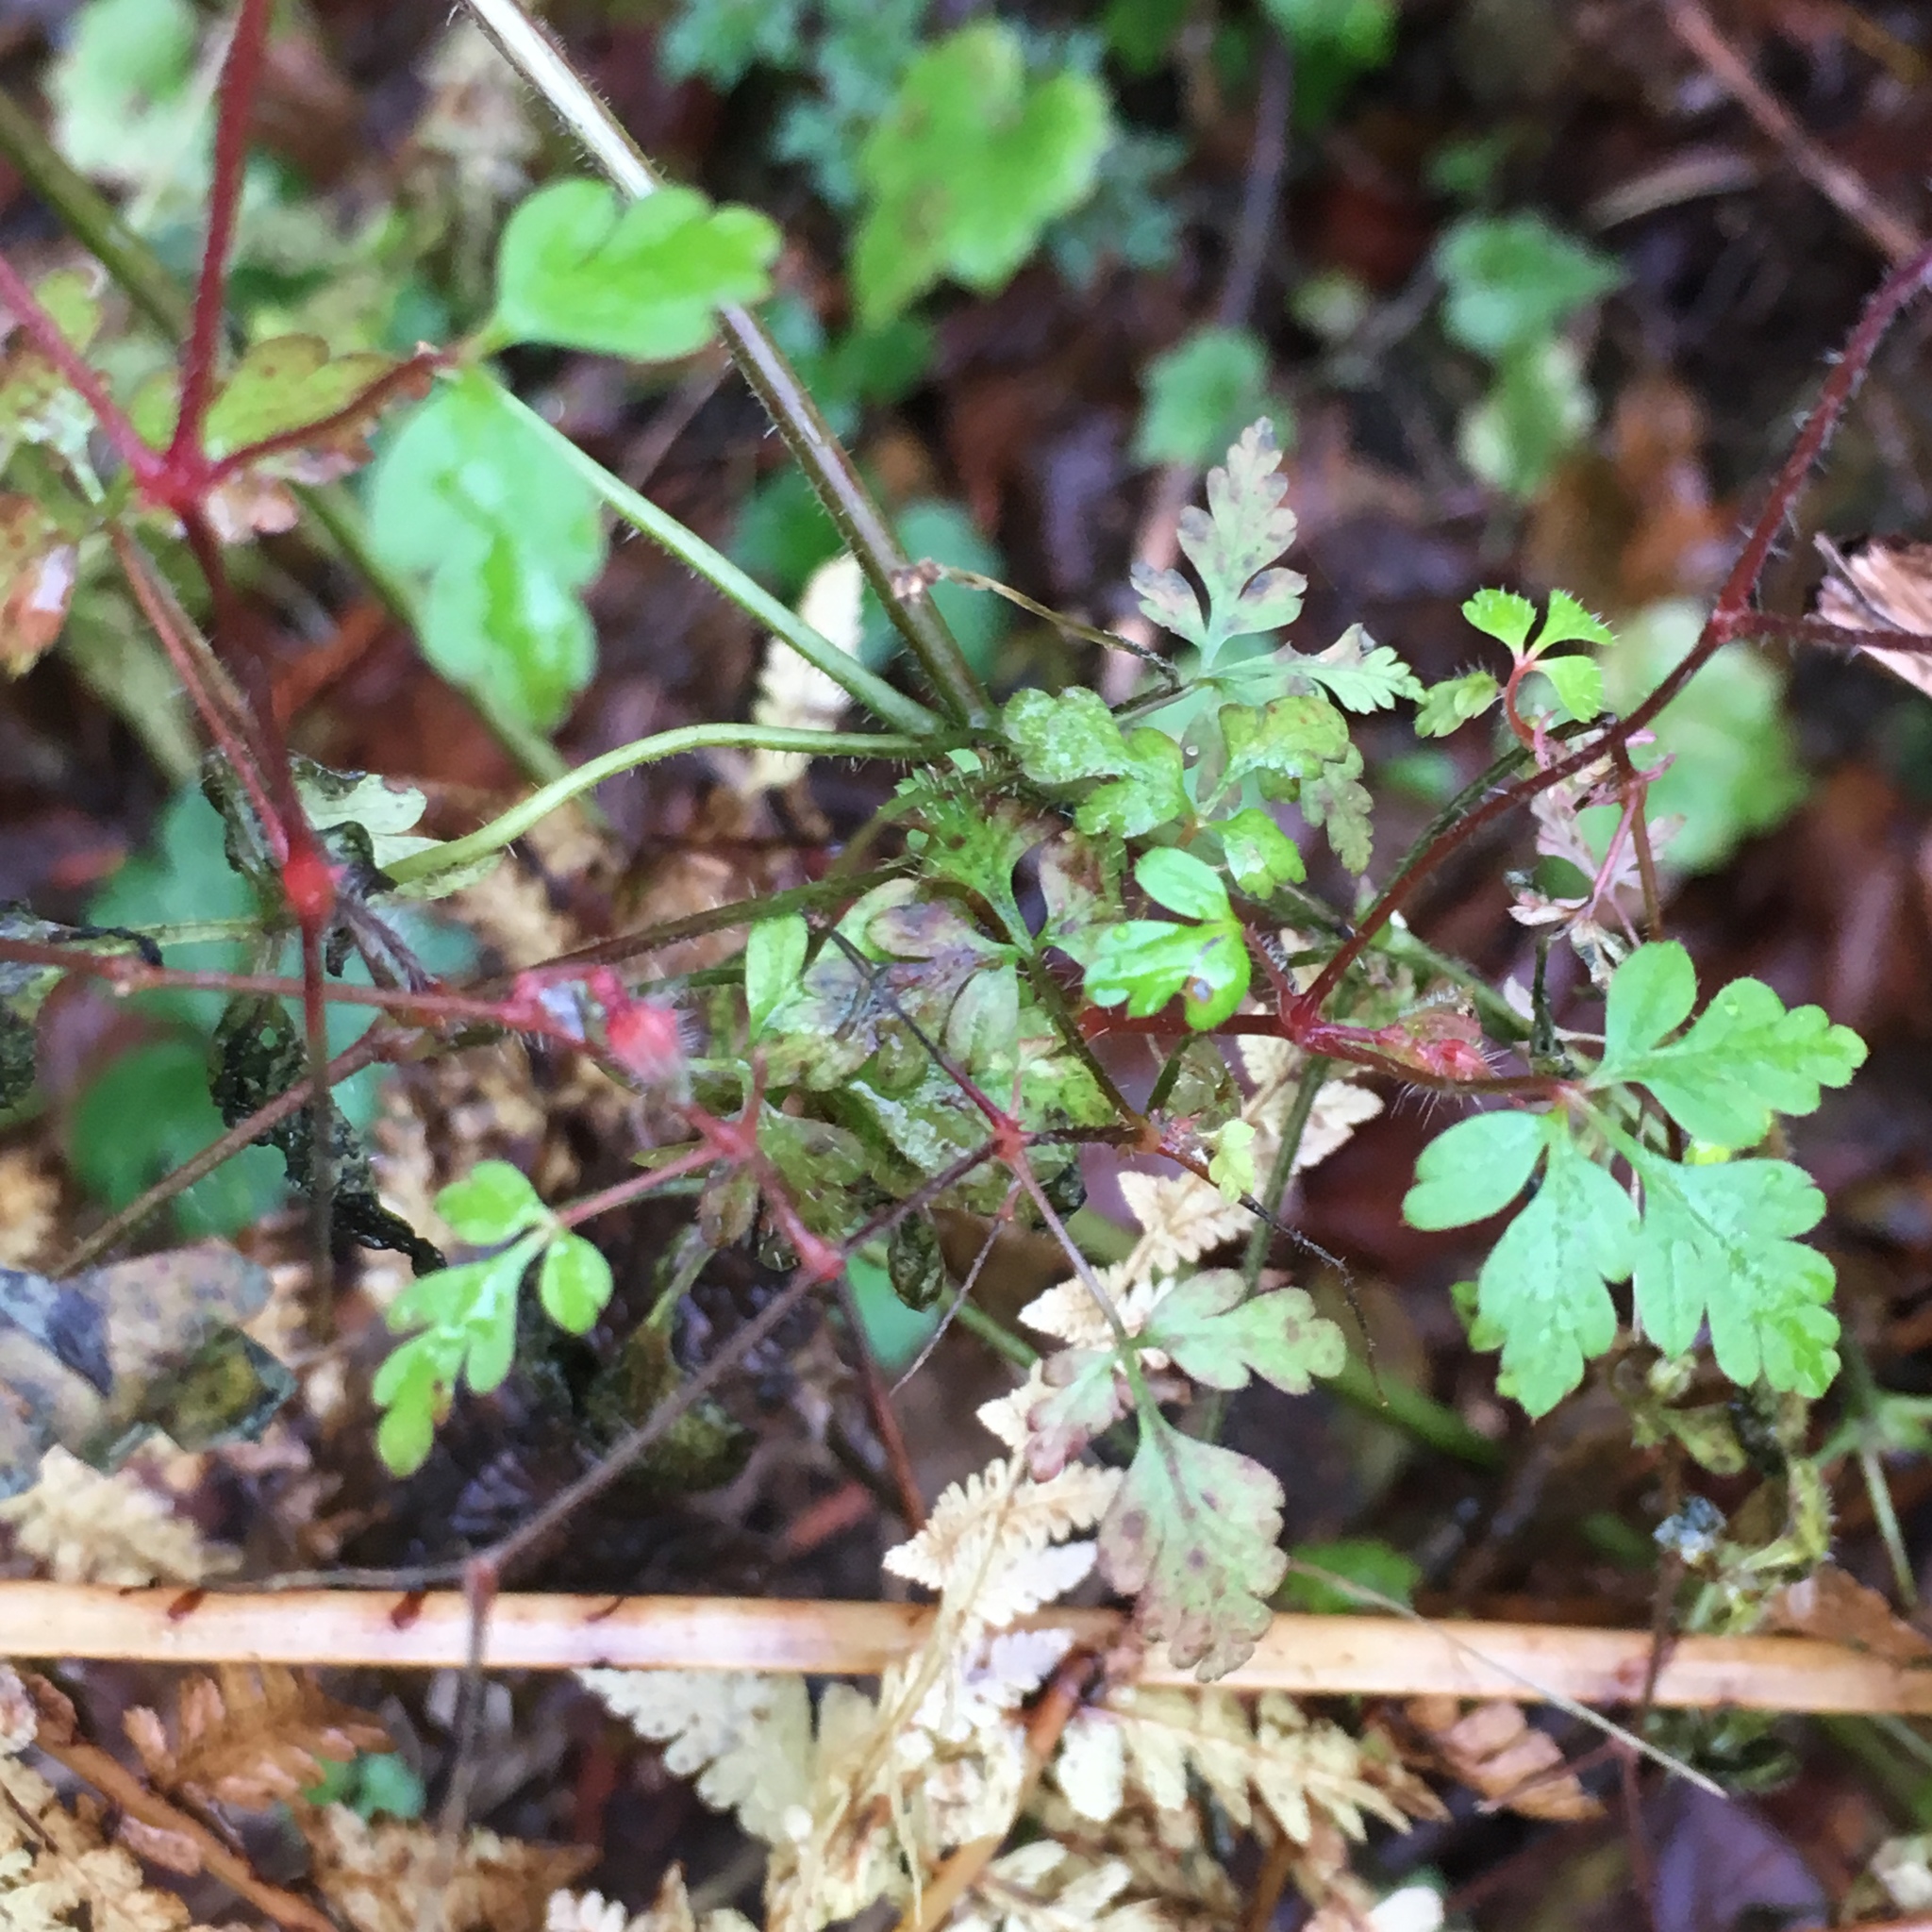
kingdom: Plantae
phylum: Tracheophyta
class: Magnoliopsida
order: Geraniales
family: Geraniaceae
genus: Geranium
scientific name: Geranium robertianum
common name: Herb-robert
